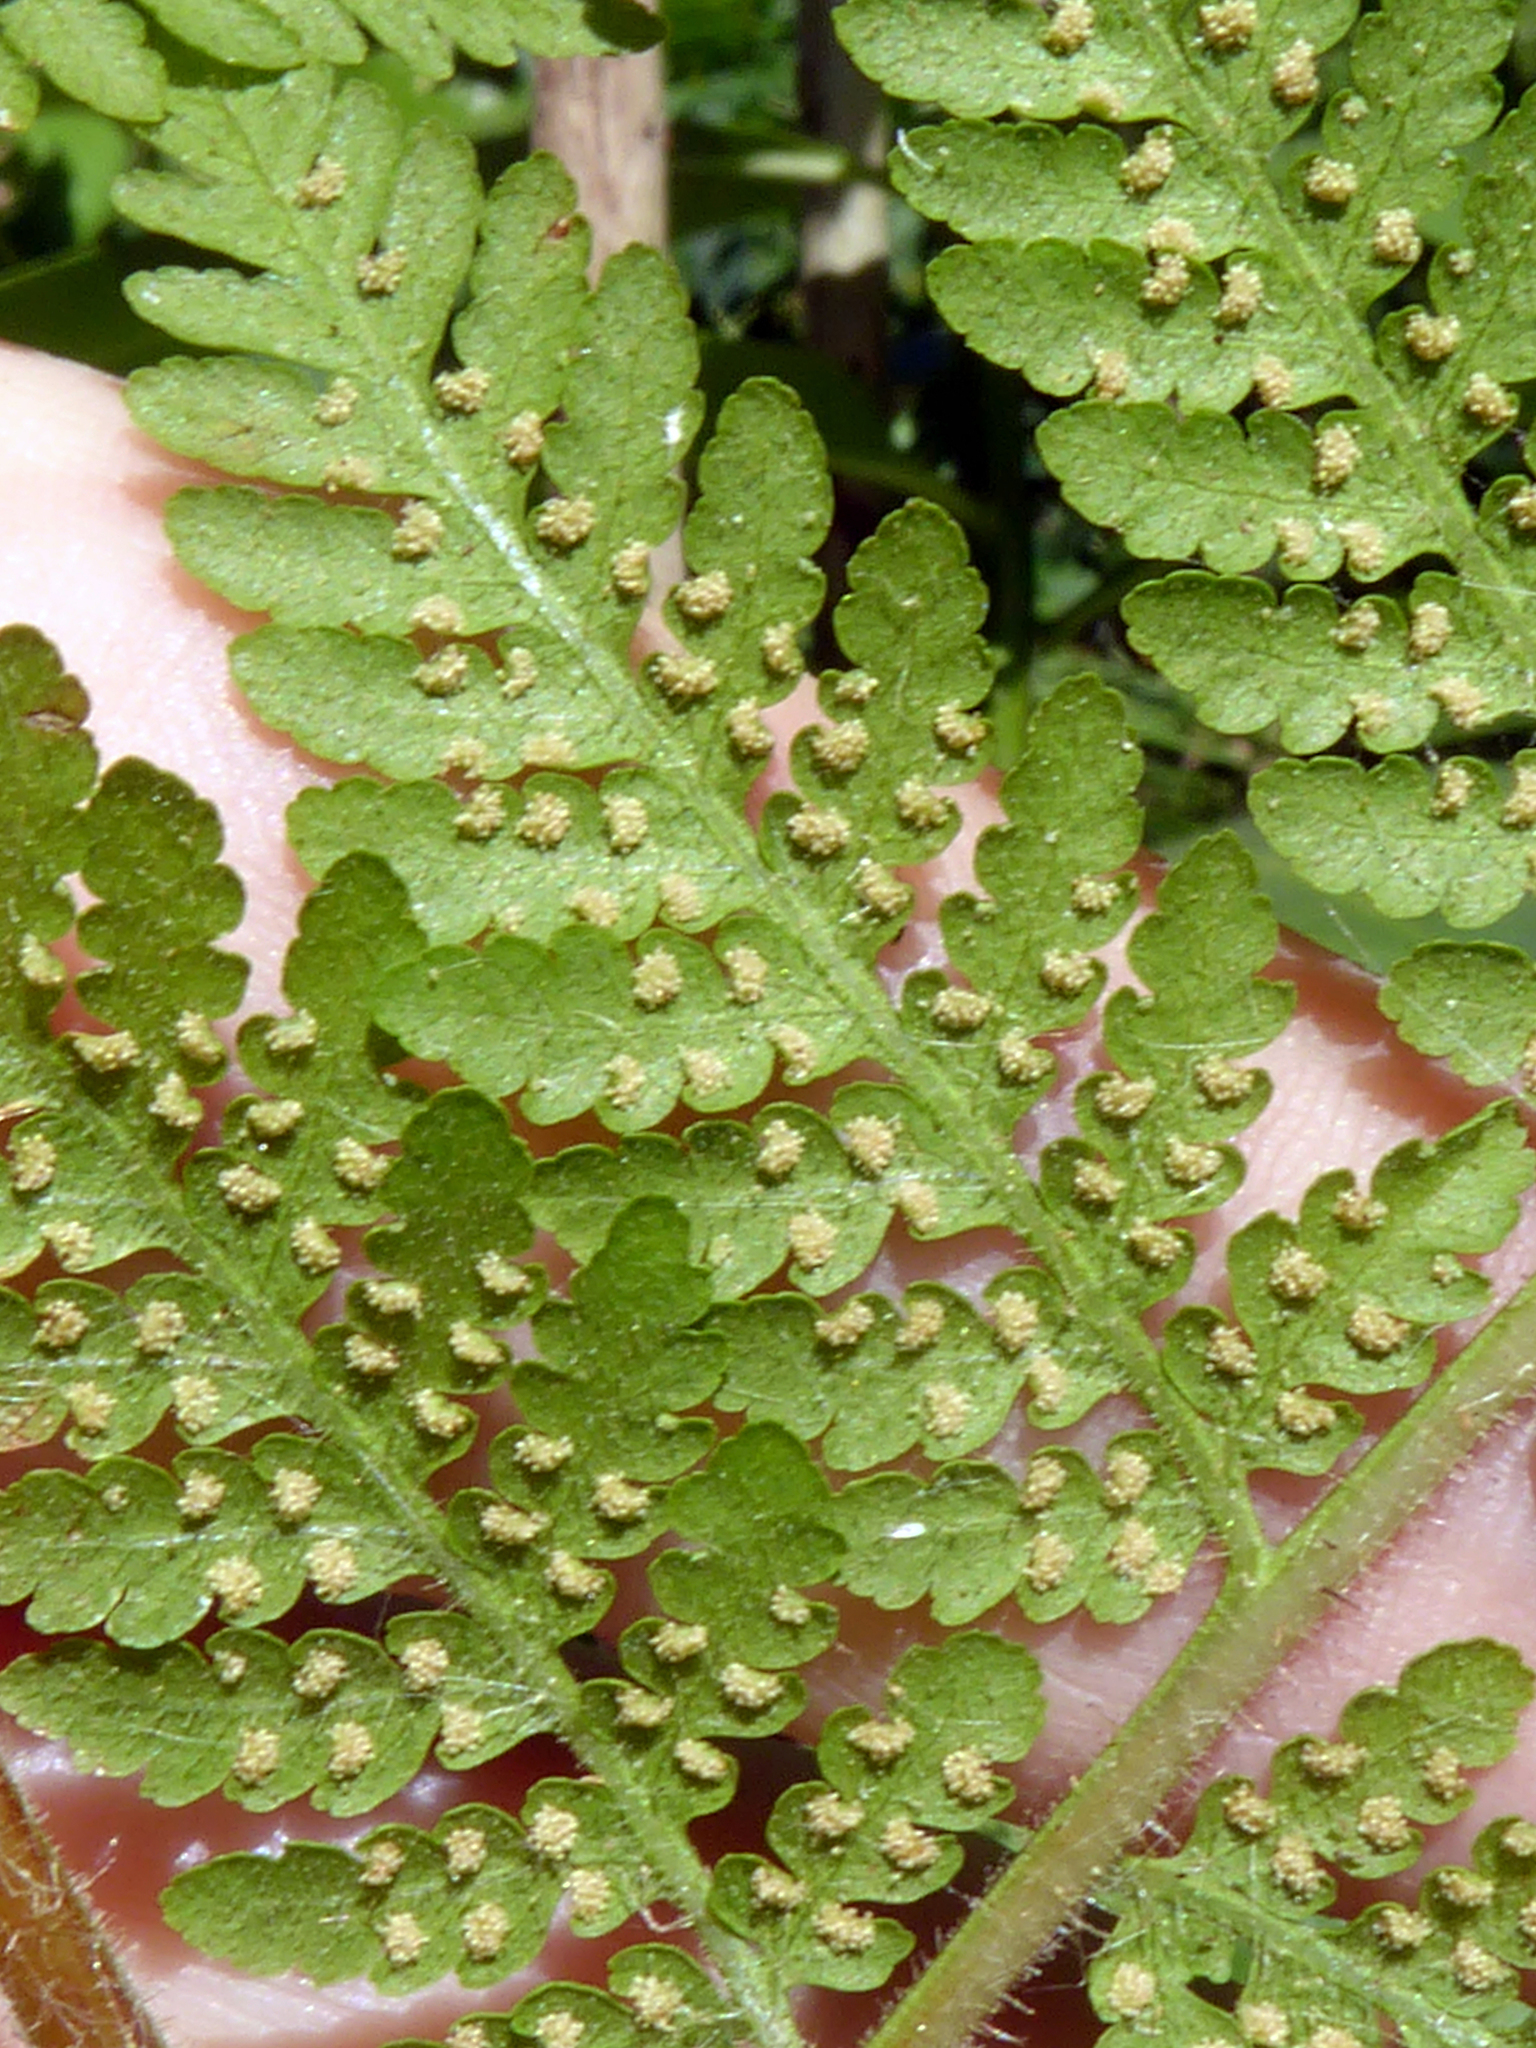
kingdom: Plantae
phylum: Tracheophyta
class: Polypodiopsida
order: Polypodiales
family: Dennstaedtiaceae
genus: Hypolepis
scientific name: Hypolepis tenuifolia
